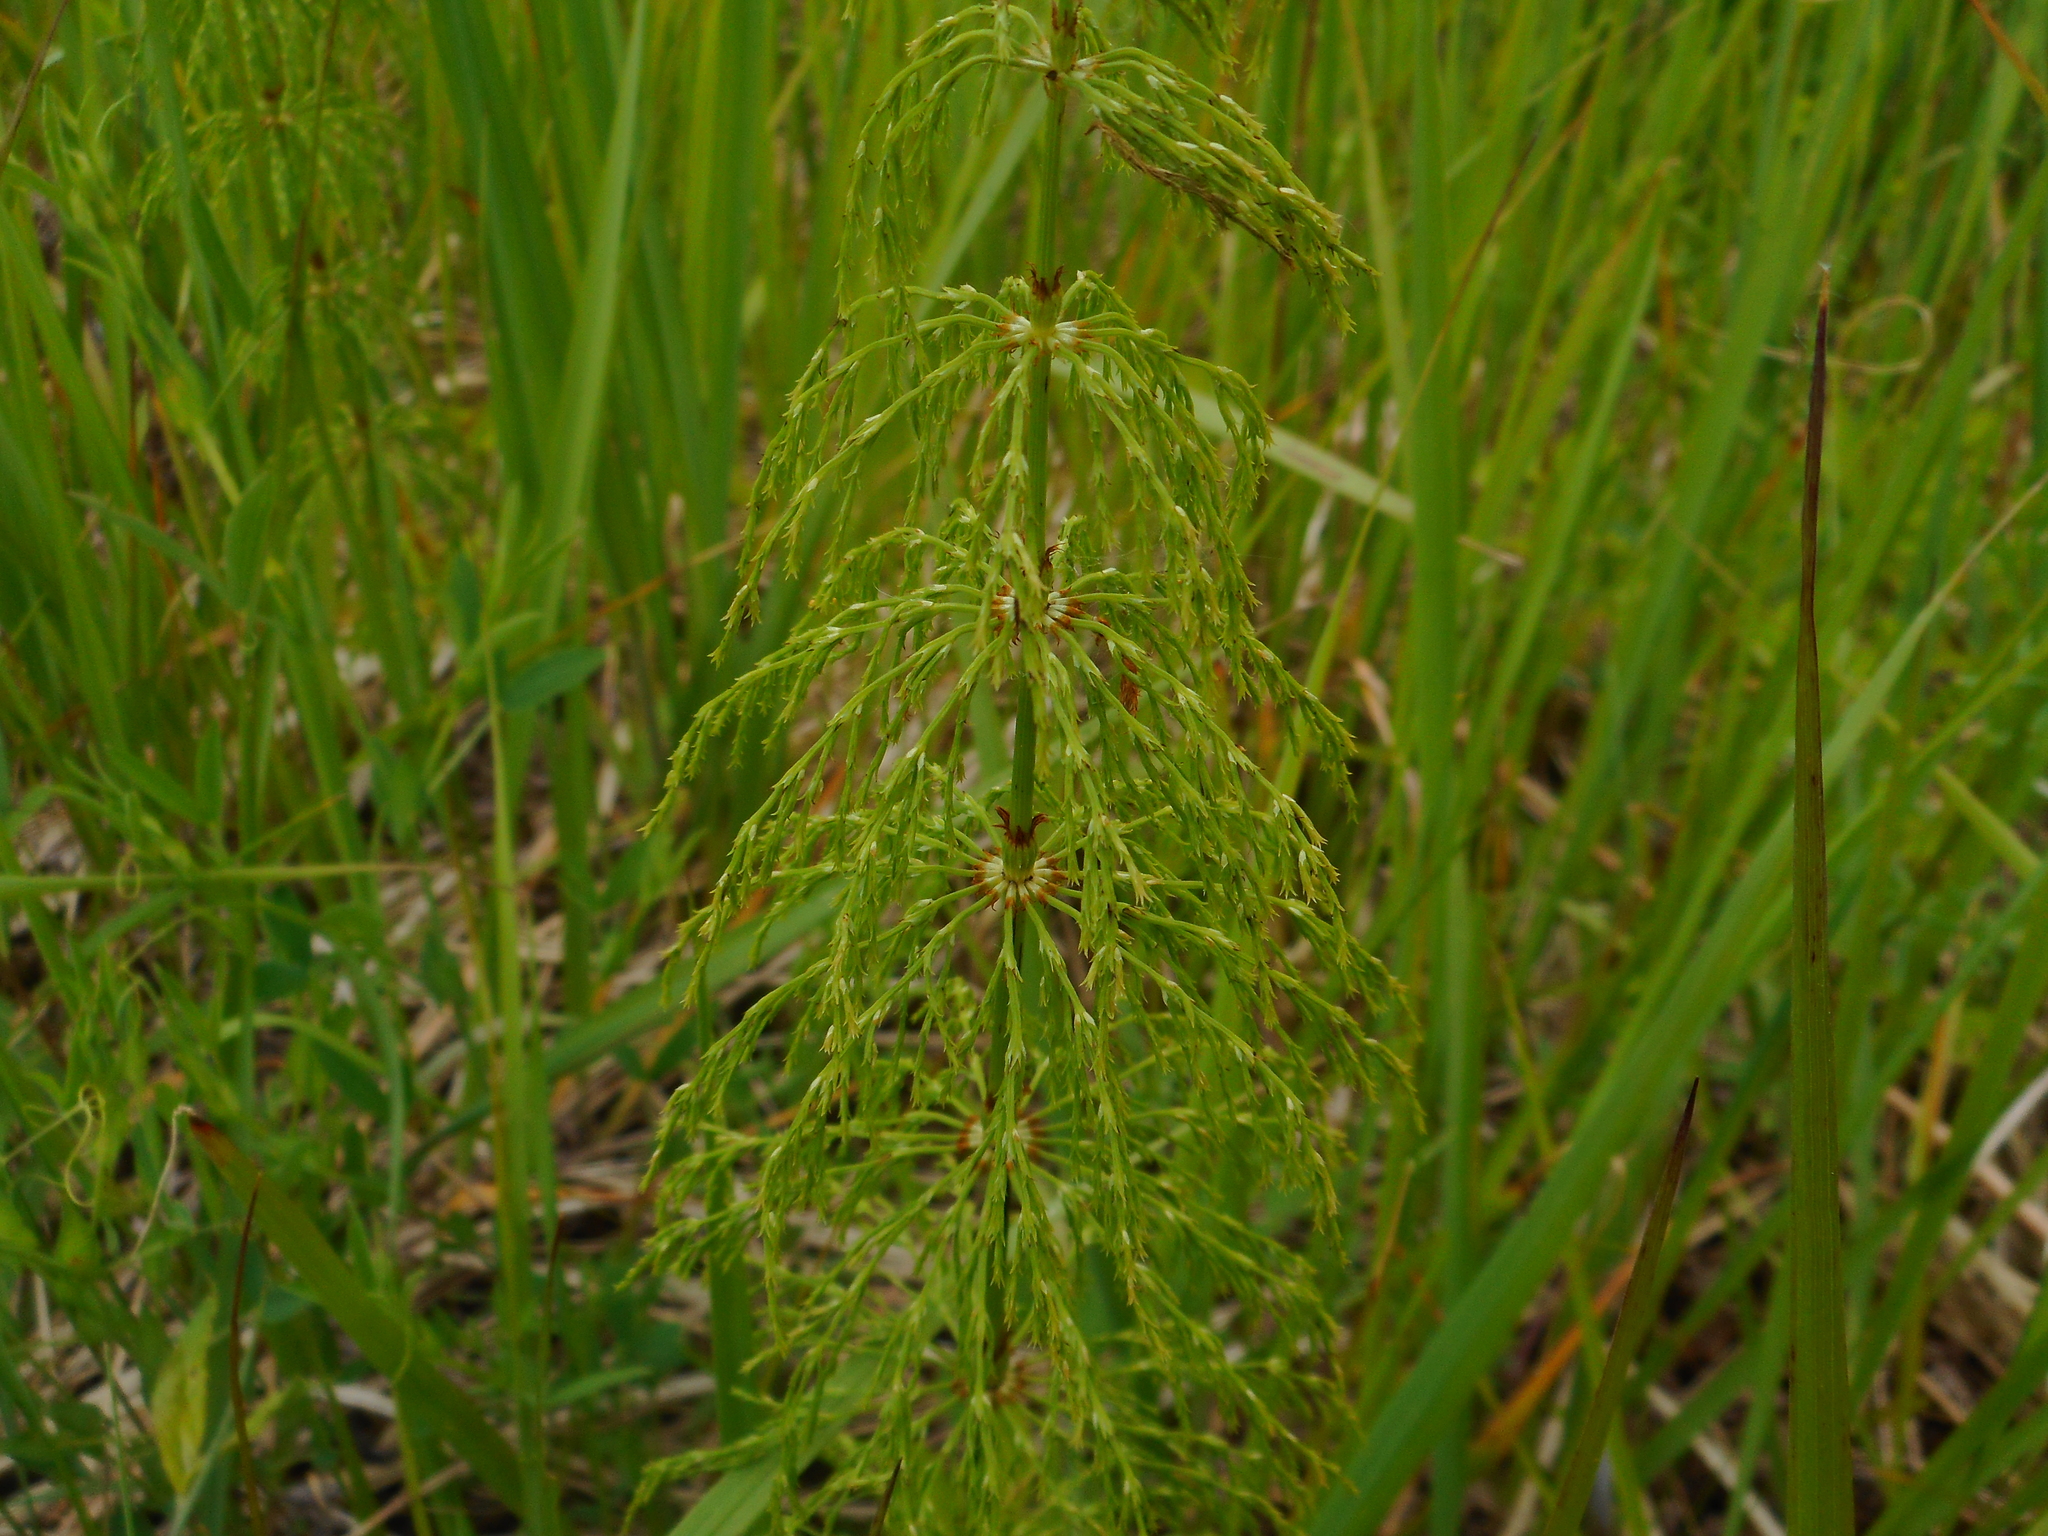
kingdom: Plantae
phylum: Tracheophyta
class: Polypodiopsida
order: Equisetales
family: Equisetaceae
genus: Equisetum
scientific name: Equisetum sylvaticum
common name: Wood horsetail
